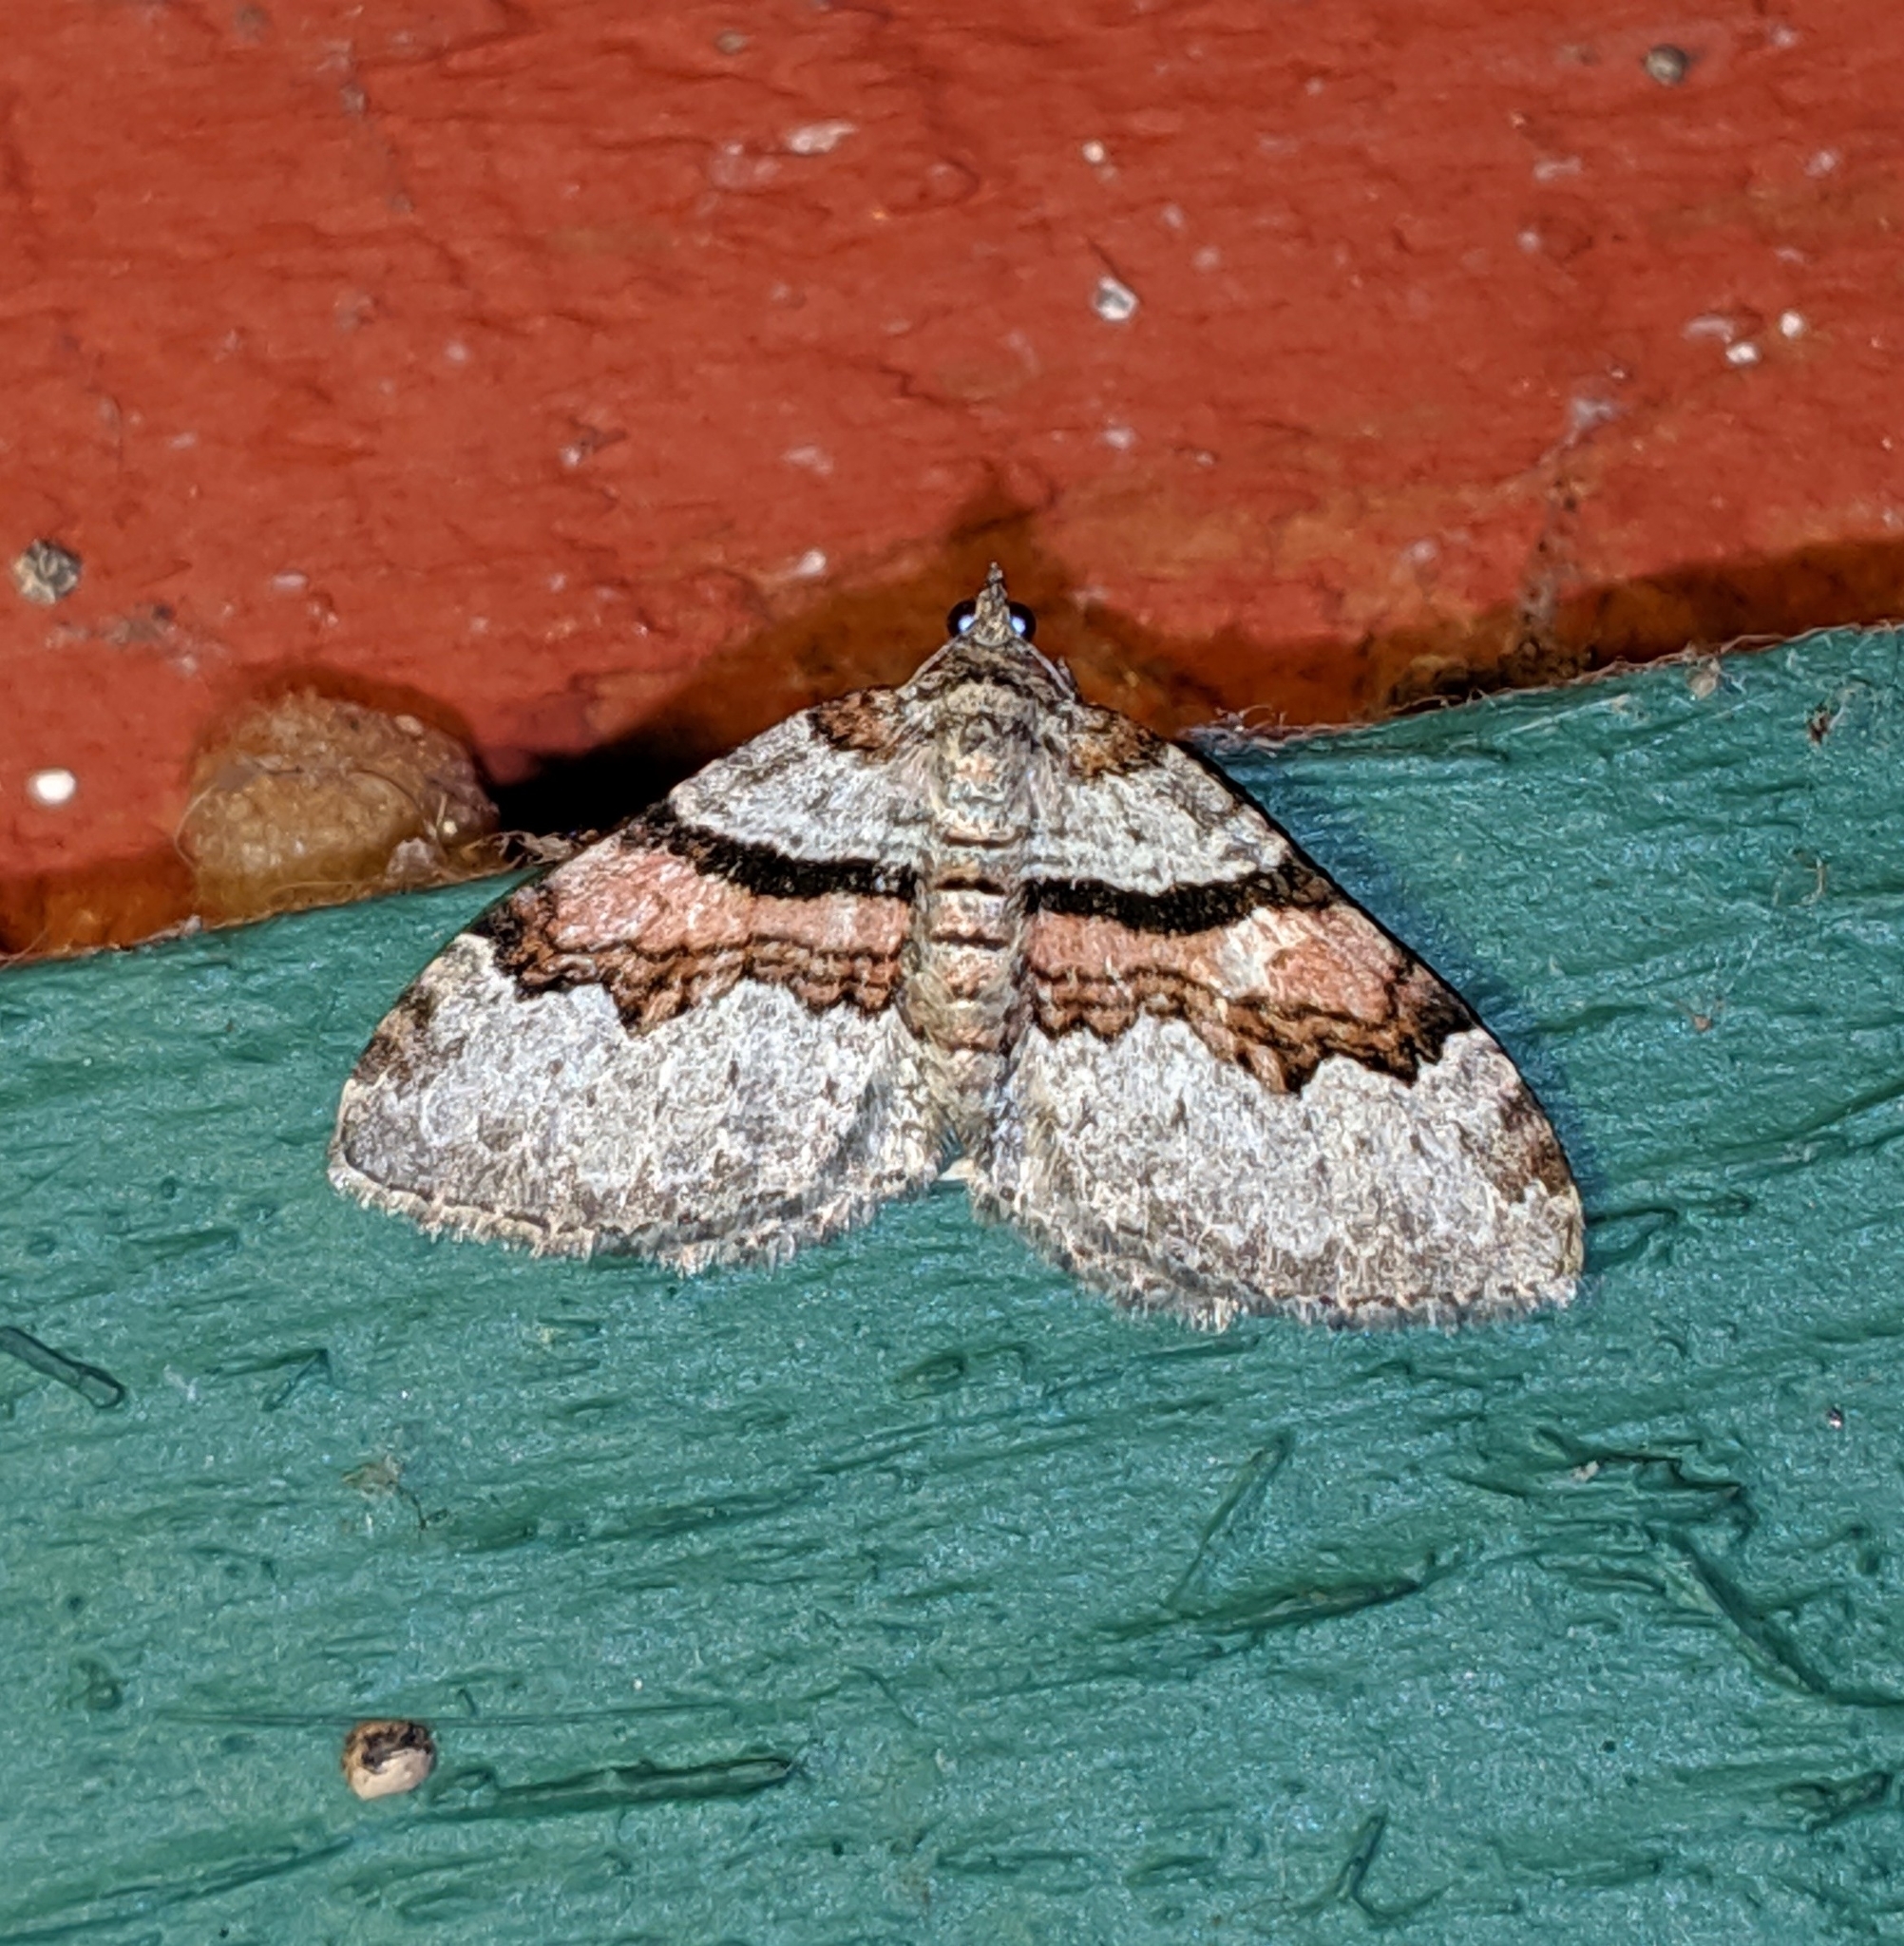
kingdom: Animalia
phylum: Arthropoda
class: Insecta
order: Lepidoptera
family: Geometridae
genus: Xanthorhoe
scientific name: Xanthorhoe labradorensis
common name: Labrador carpet
